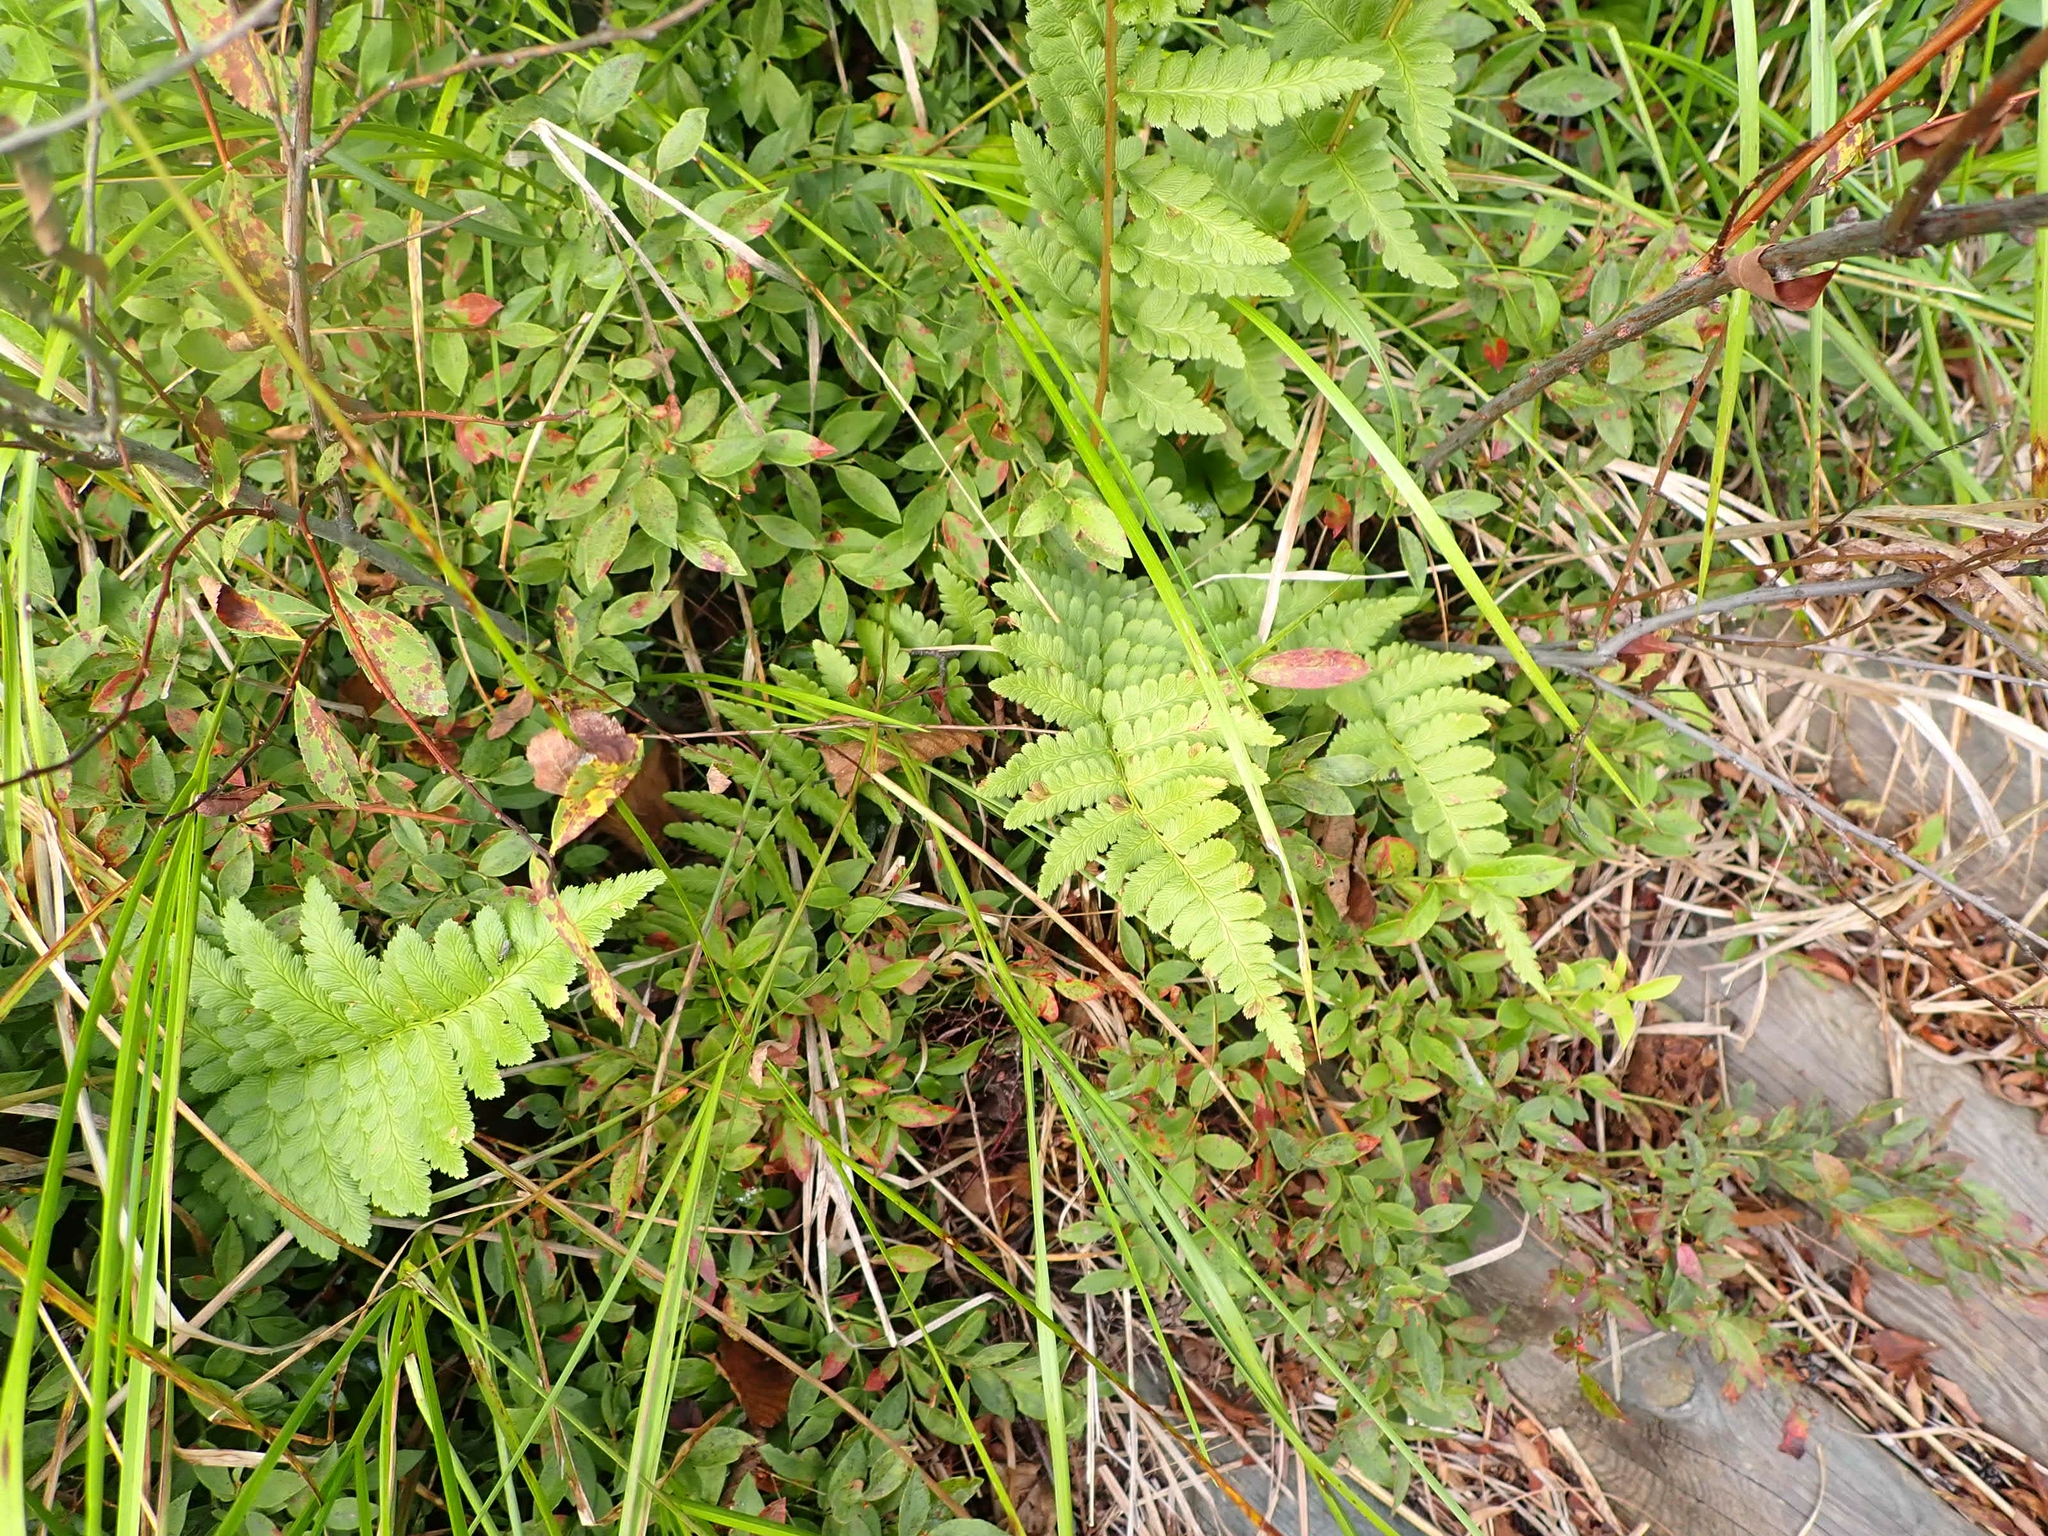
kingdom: Plantae
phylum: Tracheophyta
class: Polypodiopsida
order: Polypodiales
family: Dryopteridaceae
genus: Dryopteris
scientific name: Dryopteris cristata
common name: Crested wood fern
